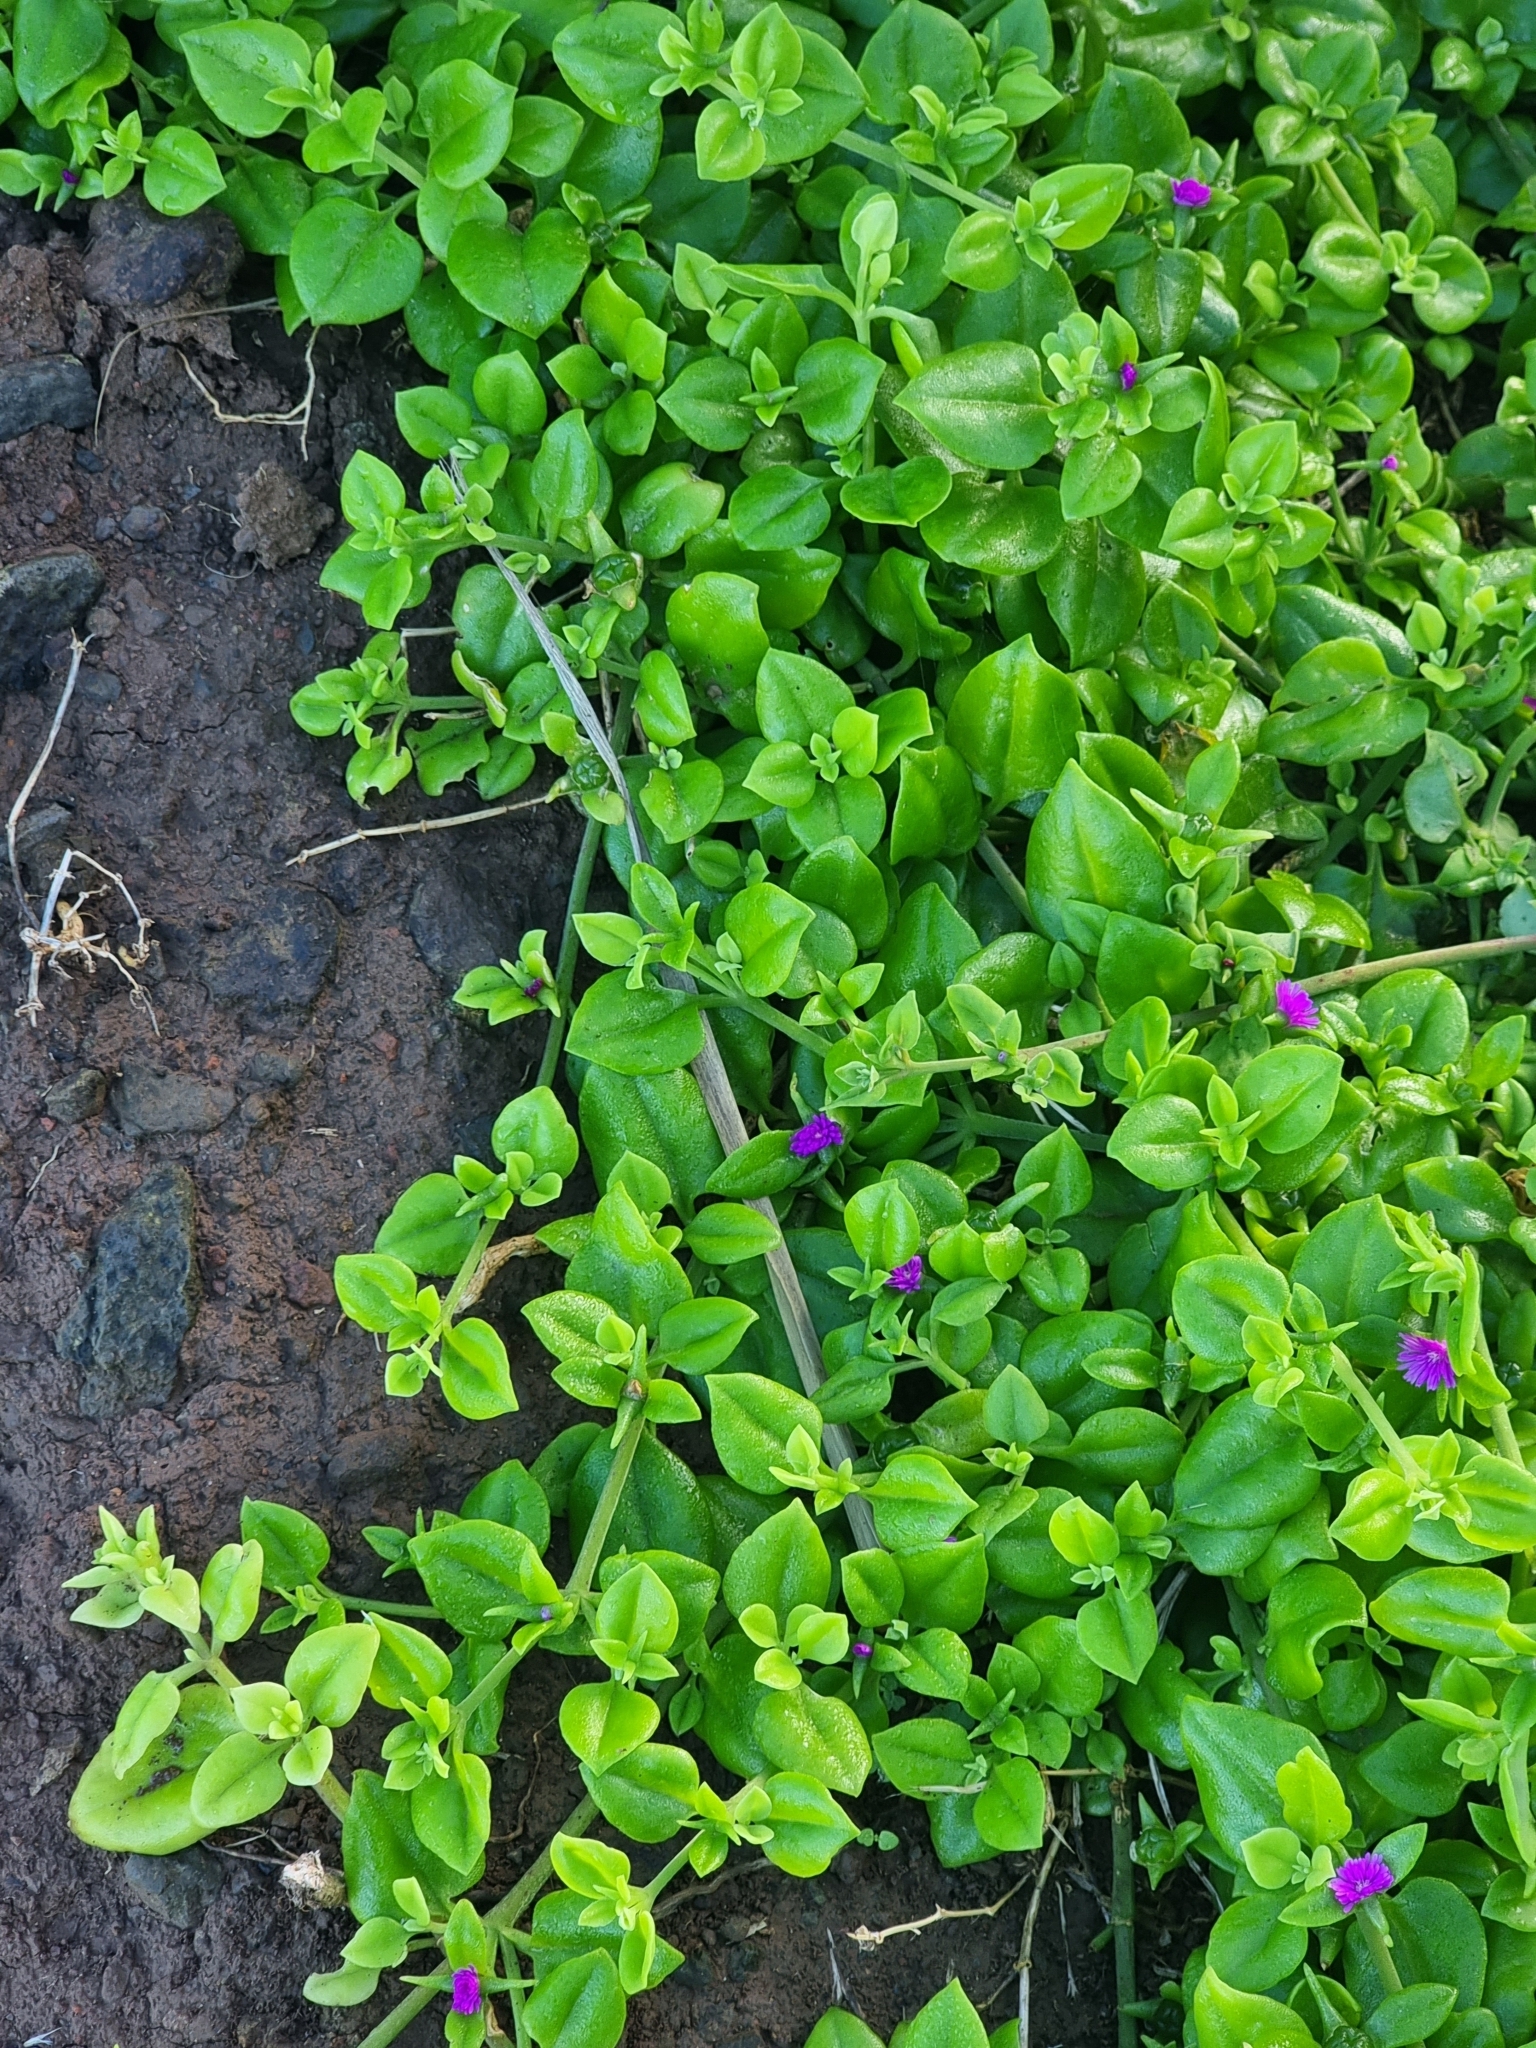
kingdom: Plantae
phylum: Tracheophyta
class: Magnoliopsida
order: Caryophyllales
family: Aizoaceae
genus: Mesembryanthemum
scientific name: Mesembryanthemum cordifolium
